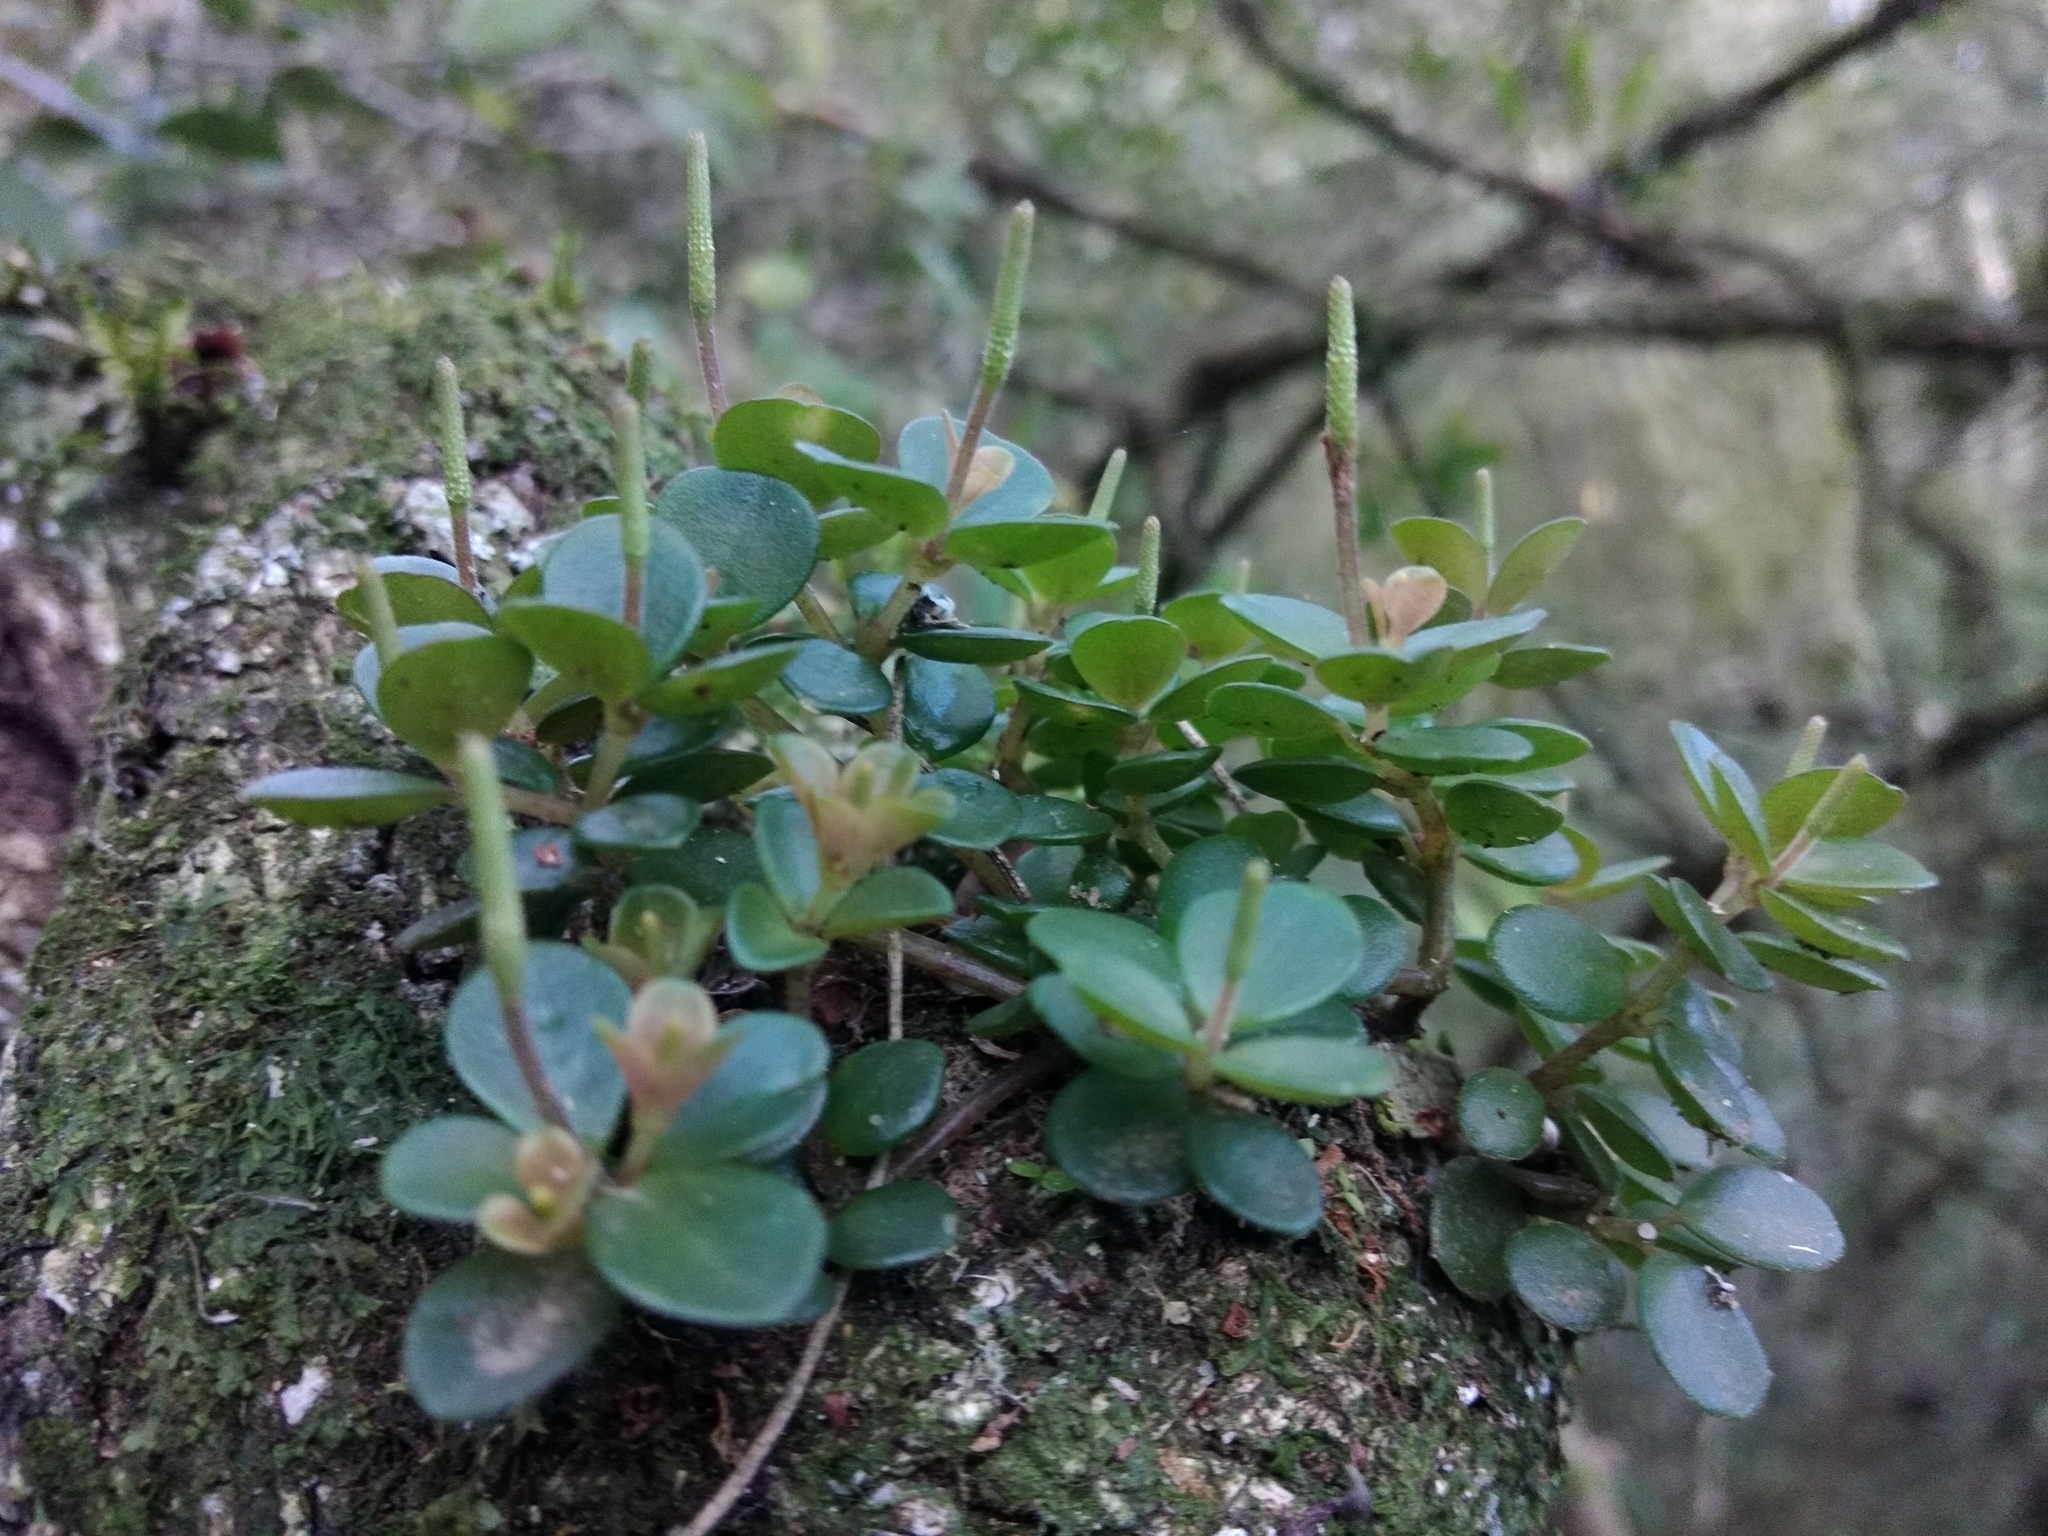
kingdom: Plantae
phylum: Tracheophyta
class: Magnoliopsida
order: Piperales
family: Piperaceae
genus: Peperomia
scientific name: Peperomia catharinae
